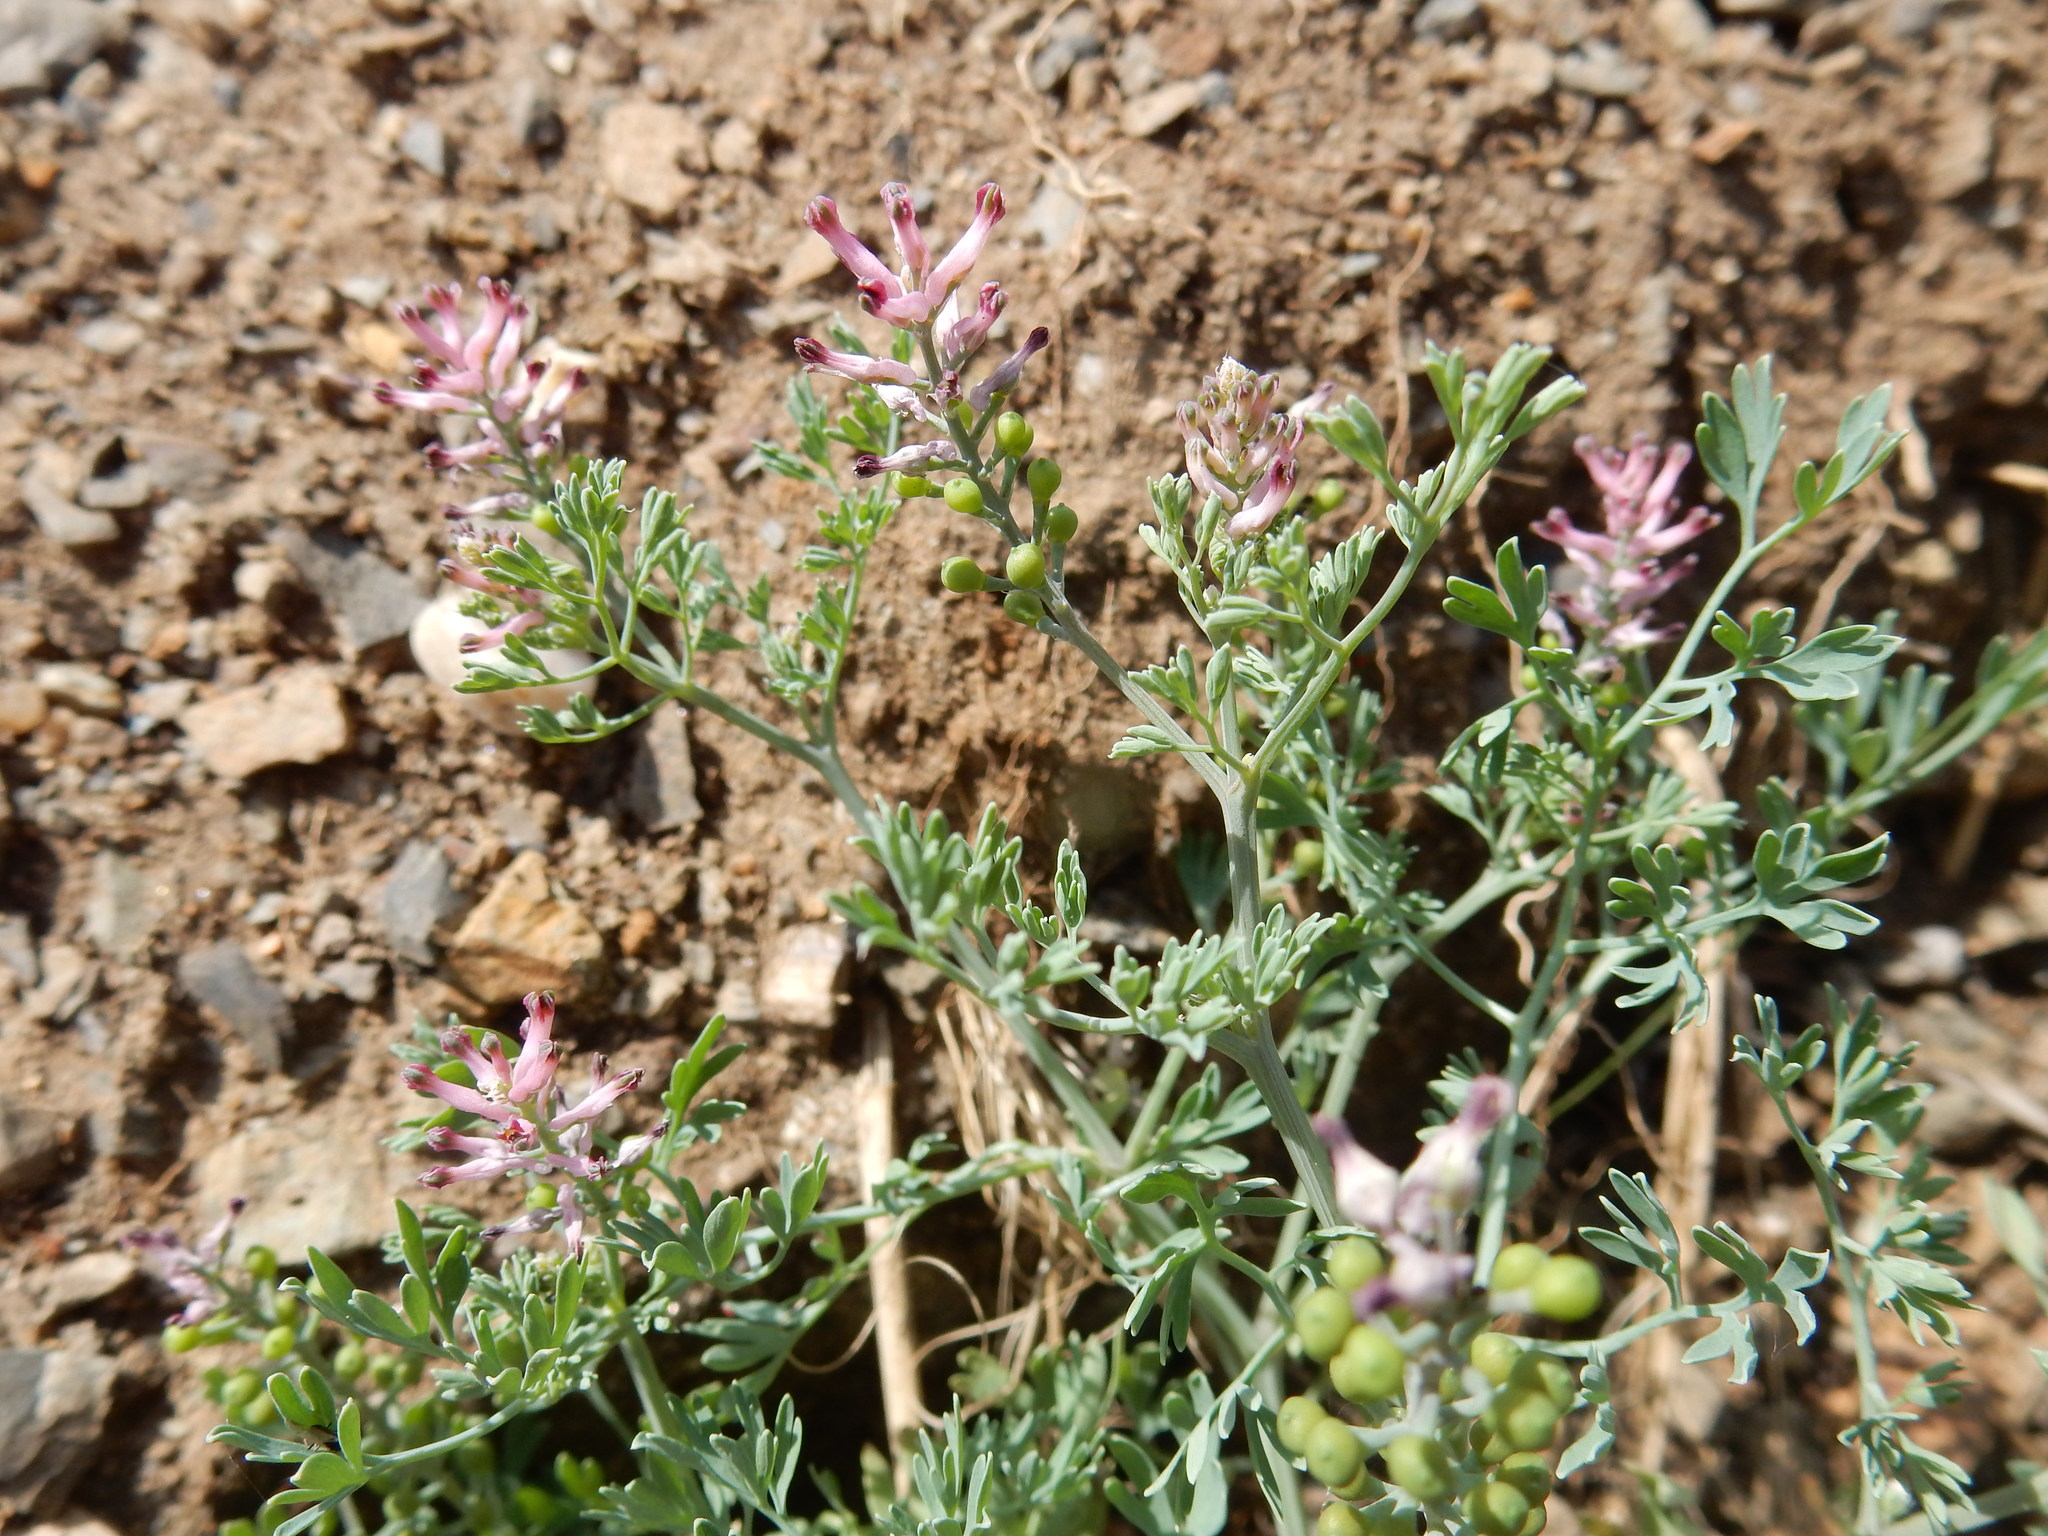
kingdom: Plantae
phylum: Tracheophyta
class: Magnoliopsida
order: Ranunculales
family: Papaveraceae
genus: Fumaria
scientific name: Fumaria schleicheri
